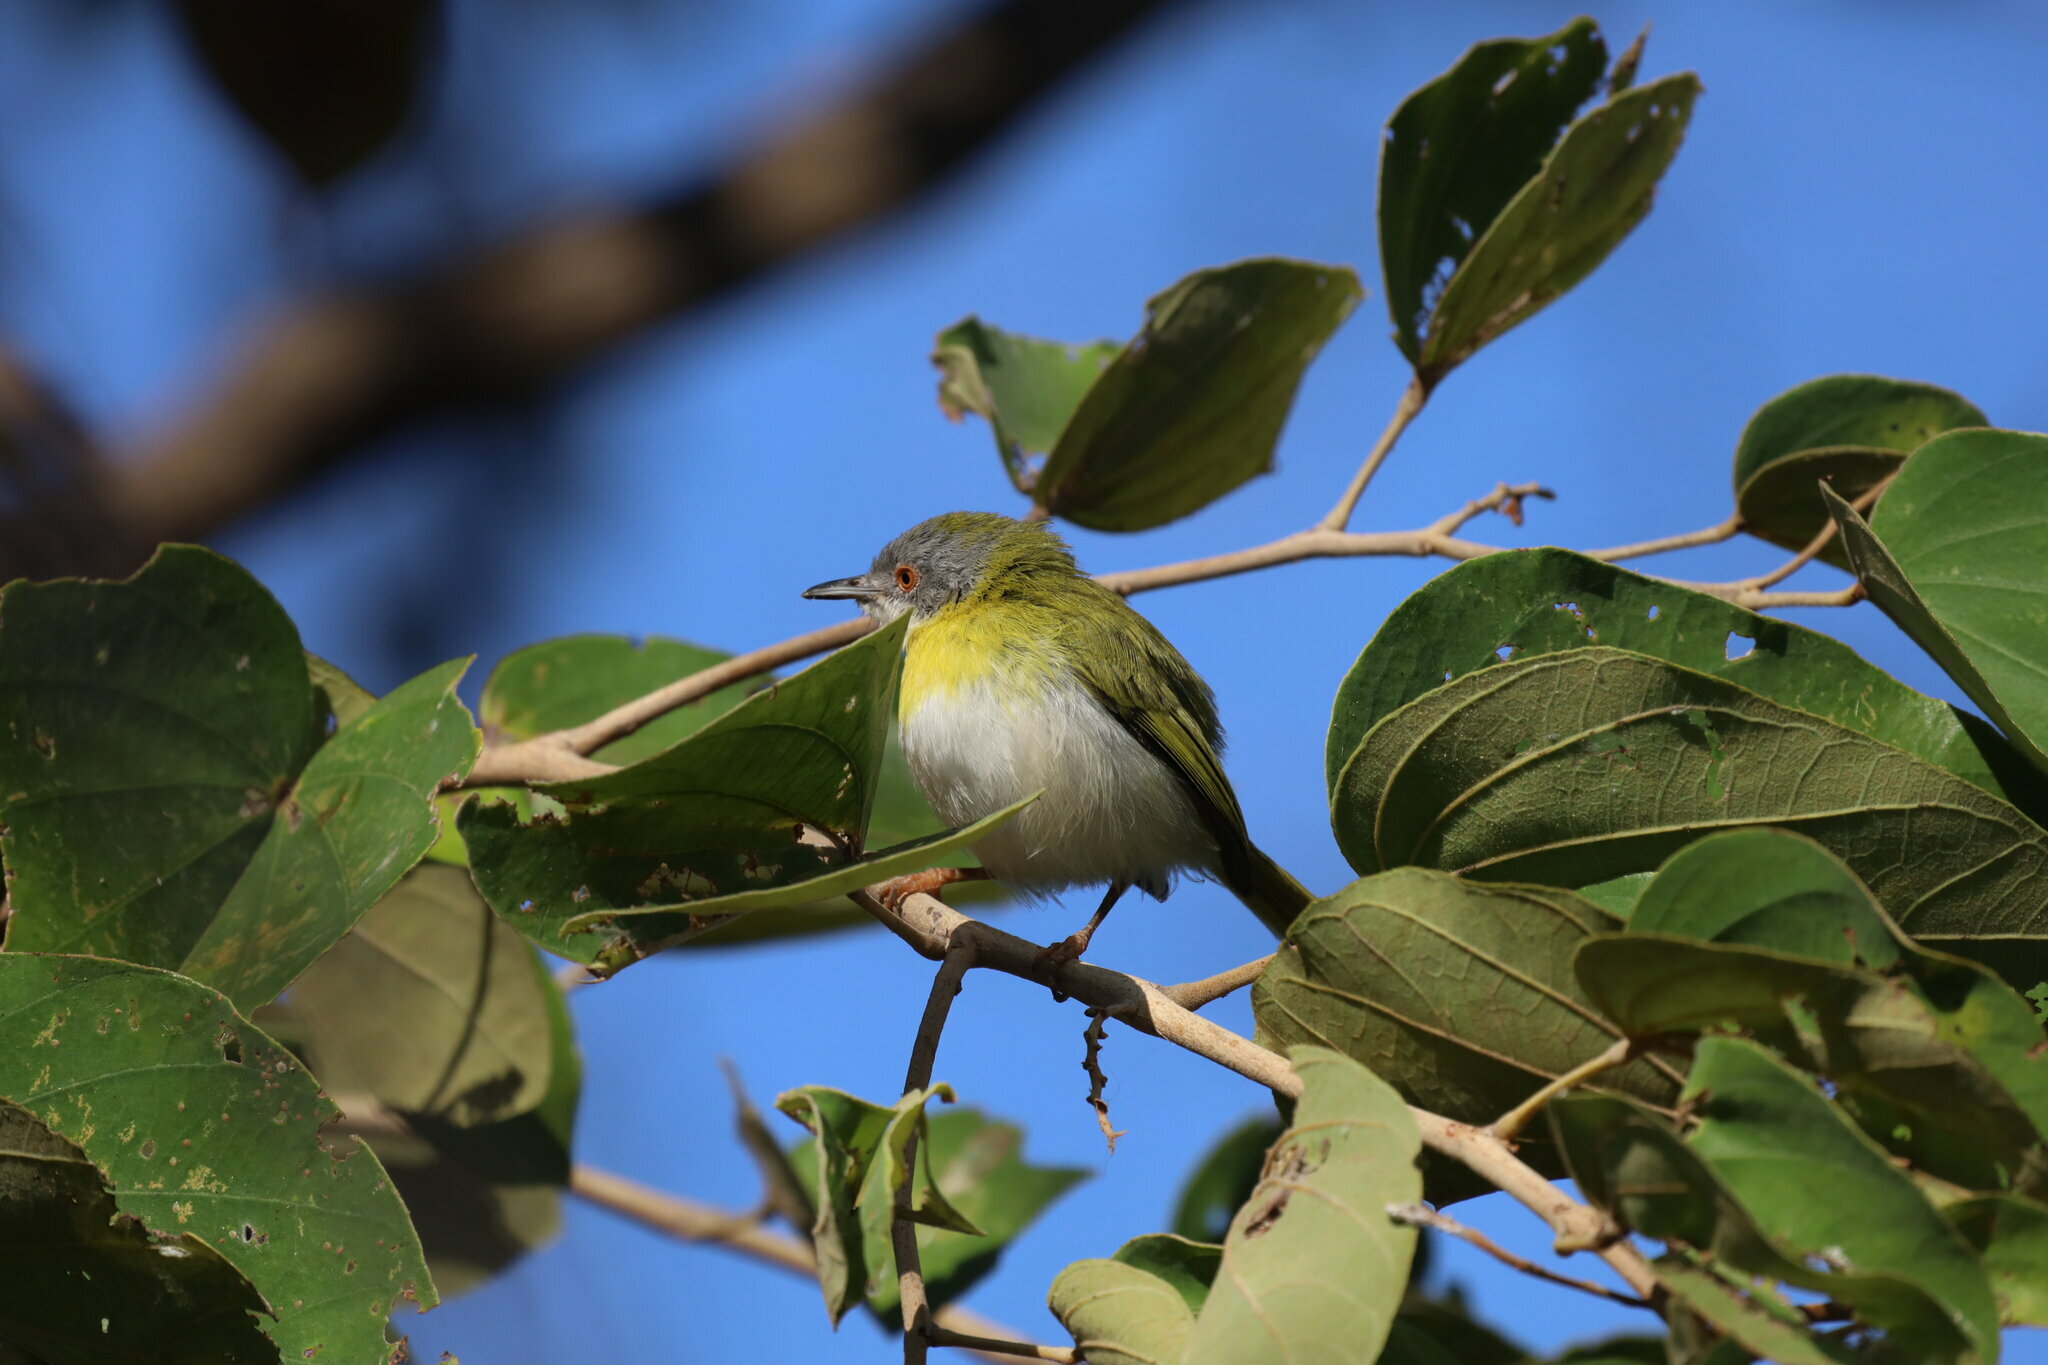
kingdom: Animalia
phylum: Chordata
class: Aves
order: Passeriformes
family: Cisticolidae
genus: Apalis
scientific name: Apalis flavida
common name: Yellow-breasted apalis
